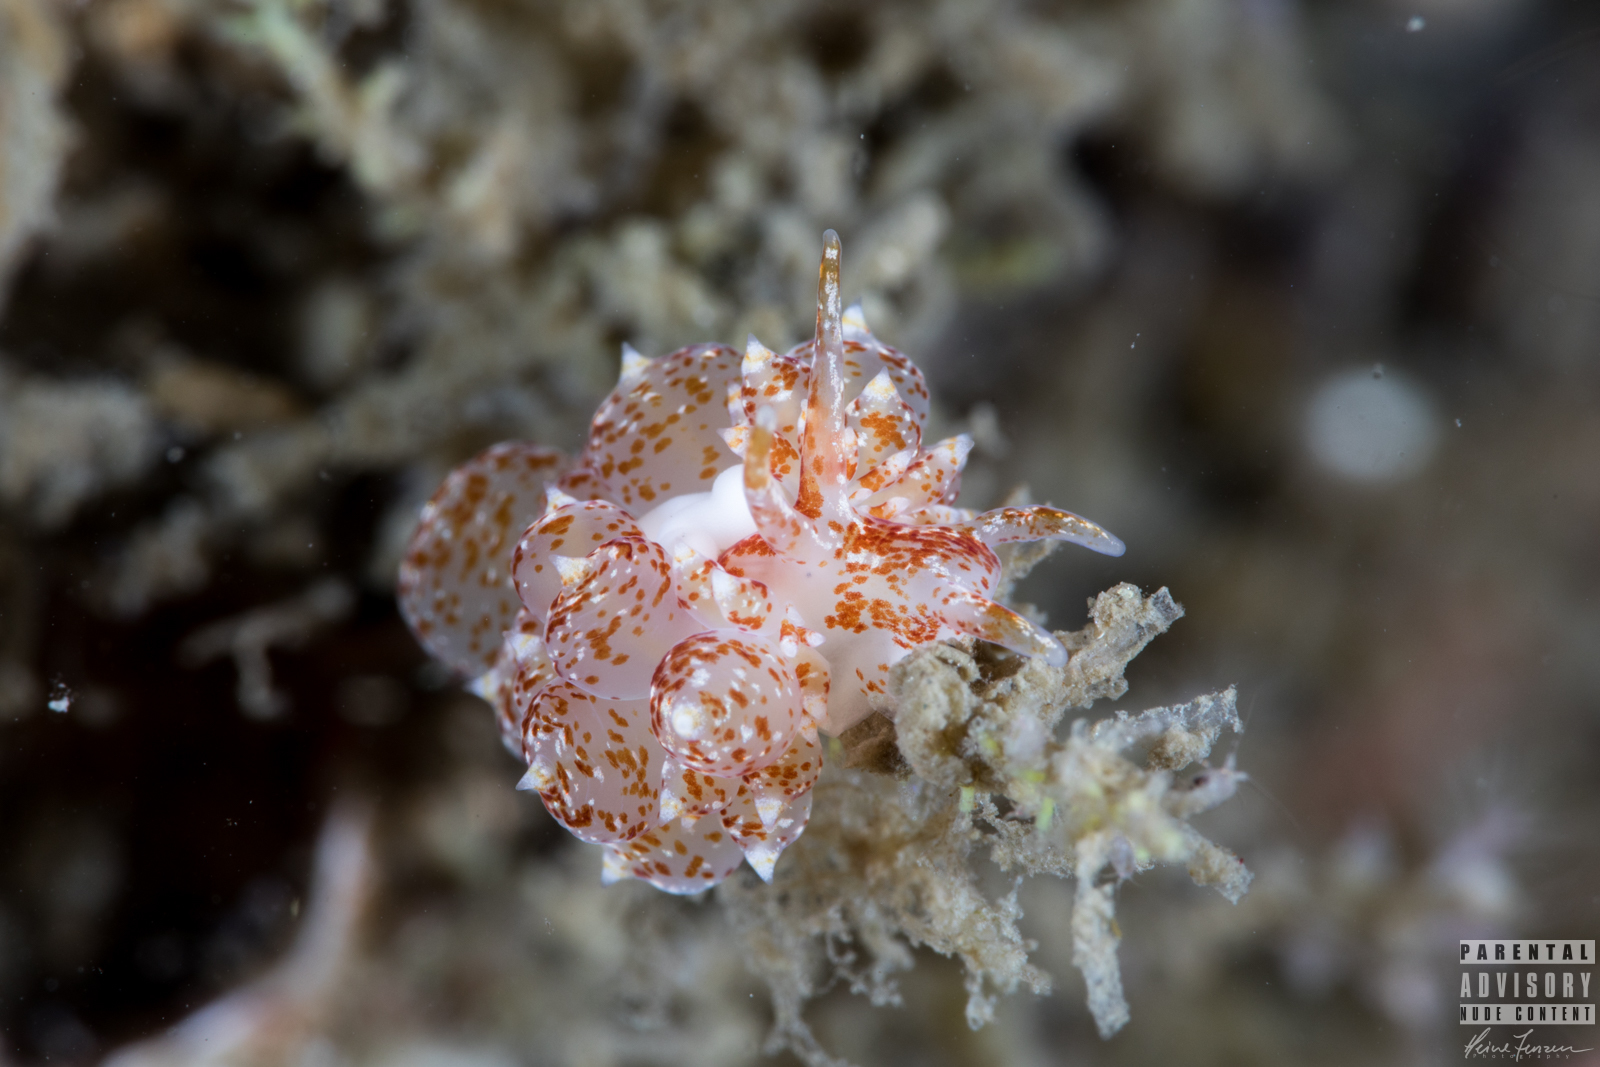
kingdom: Animalia
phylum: Mollusca
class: Gastropoda
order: Nudibranchia
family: Eubranchidae
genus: Amphorina
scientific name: Amphorina pallida
